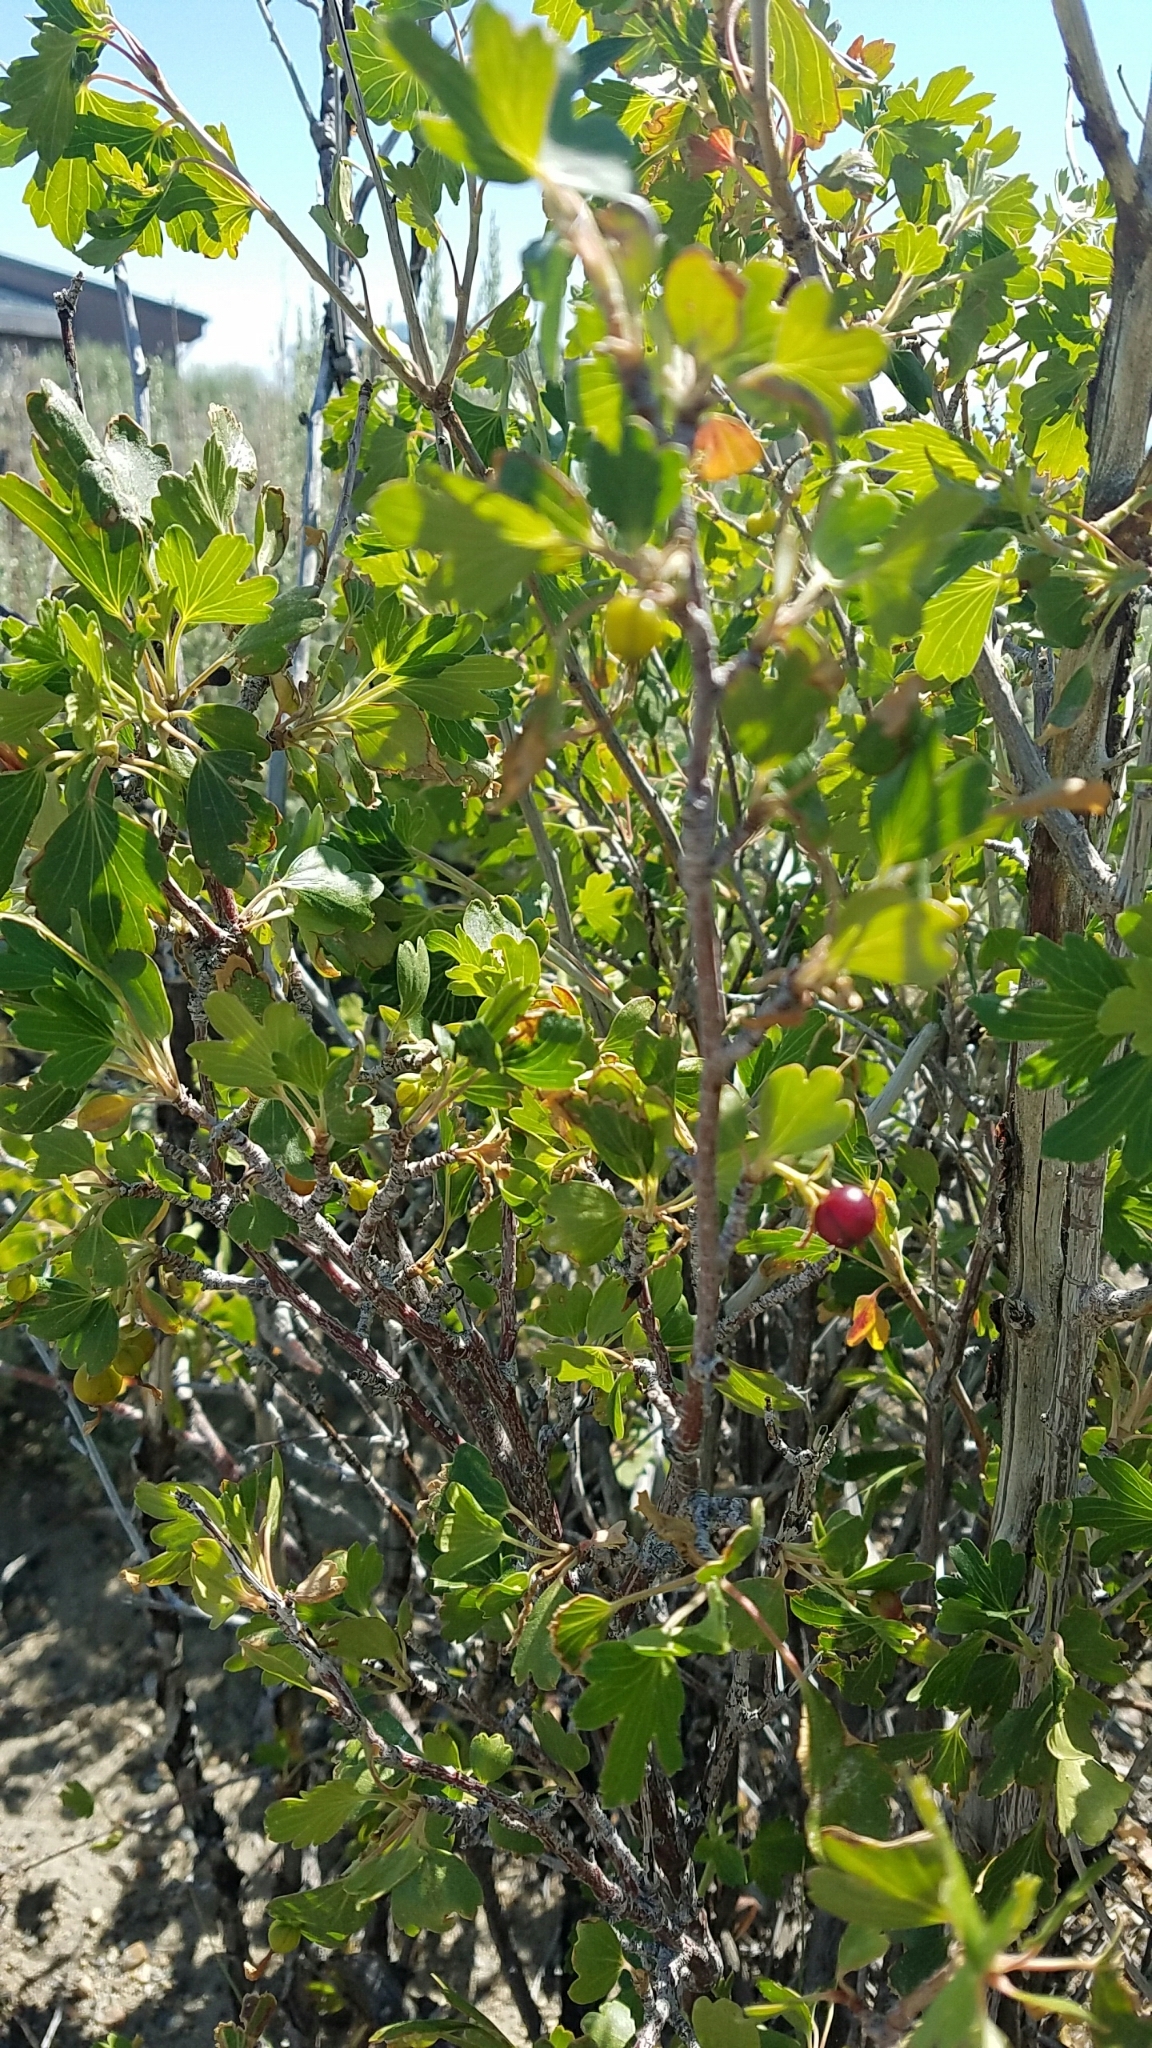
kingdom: Plantae
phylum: Tracheophyta
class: Magnoliopsida
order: Saxifragales
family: Grossulariaceae
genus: Ribes
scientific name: Ribes aureum
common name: Golden currant
